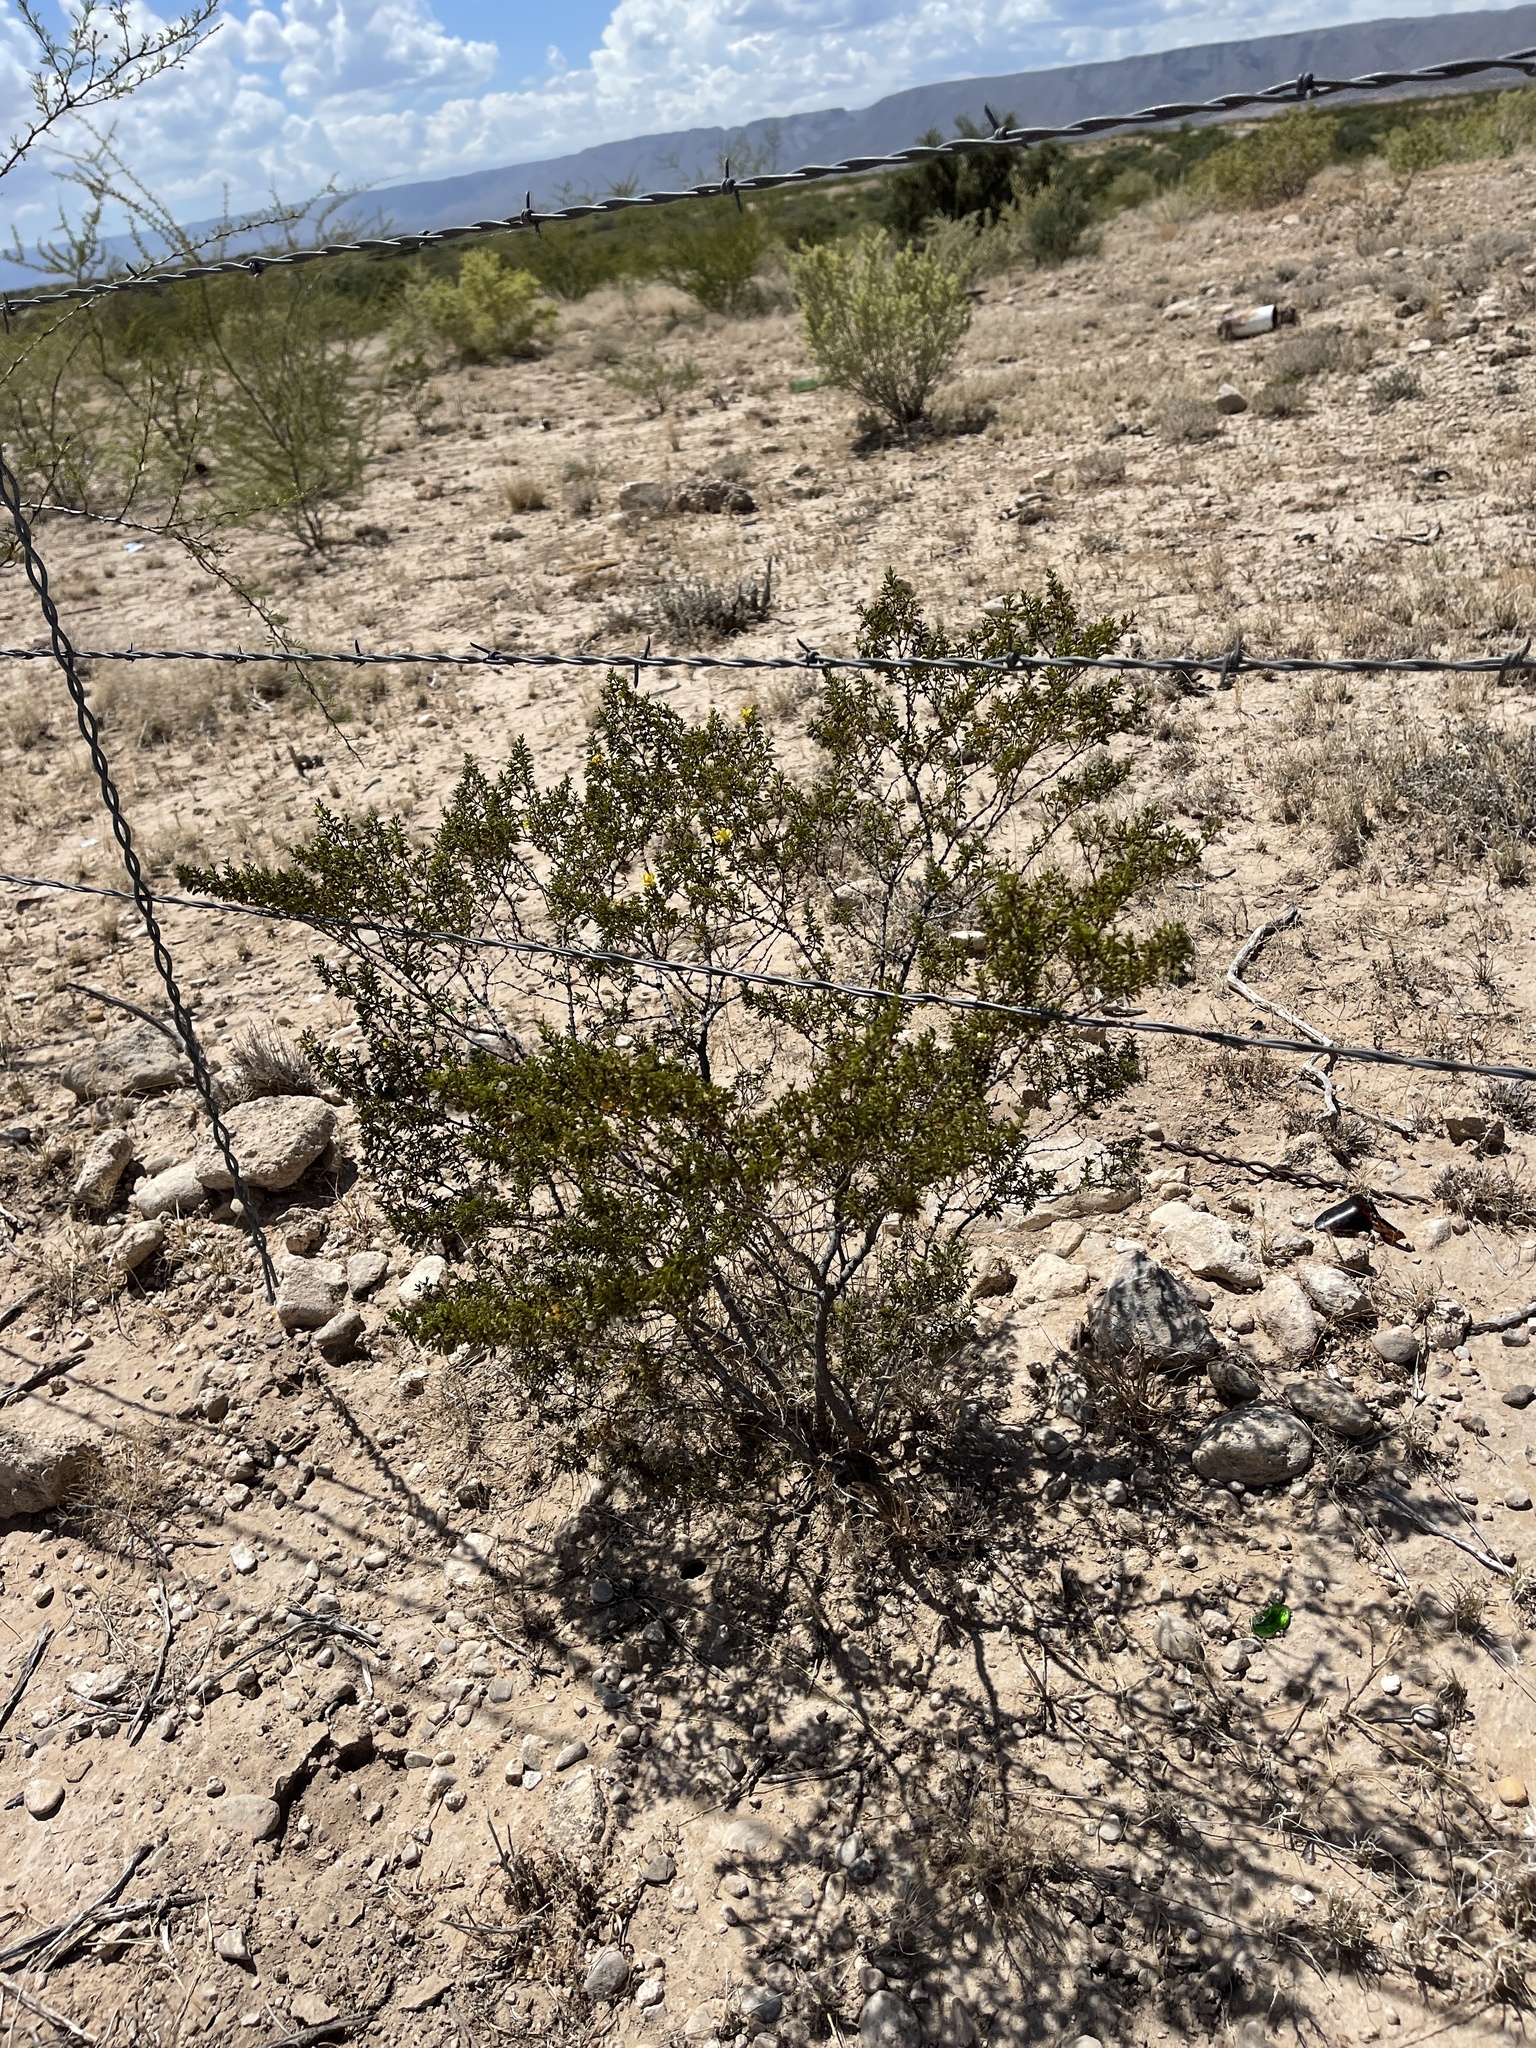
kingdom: Plantae
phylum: Tracheophyta
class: Magnoliopsida
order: Zygophyllales
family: Zygophyllaceae
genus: Larrea
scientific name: Larrea tridentata
